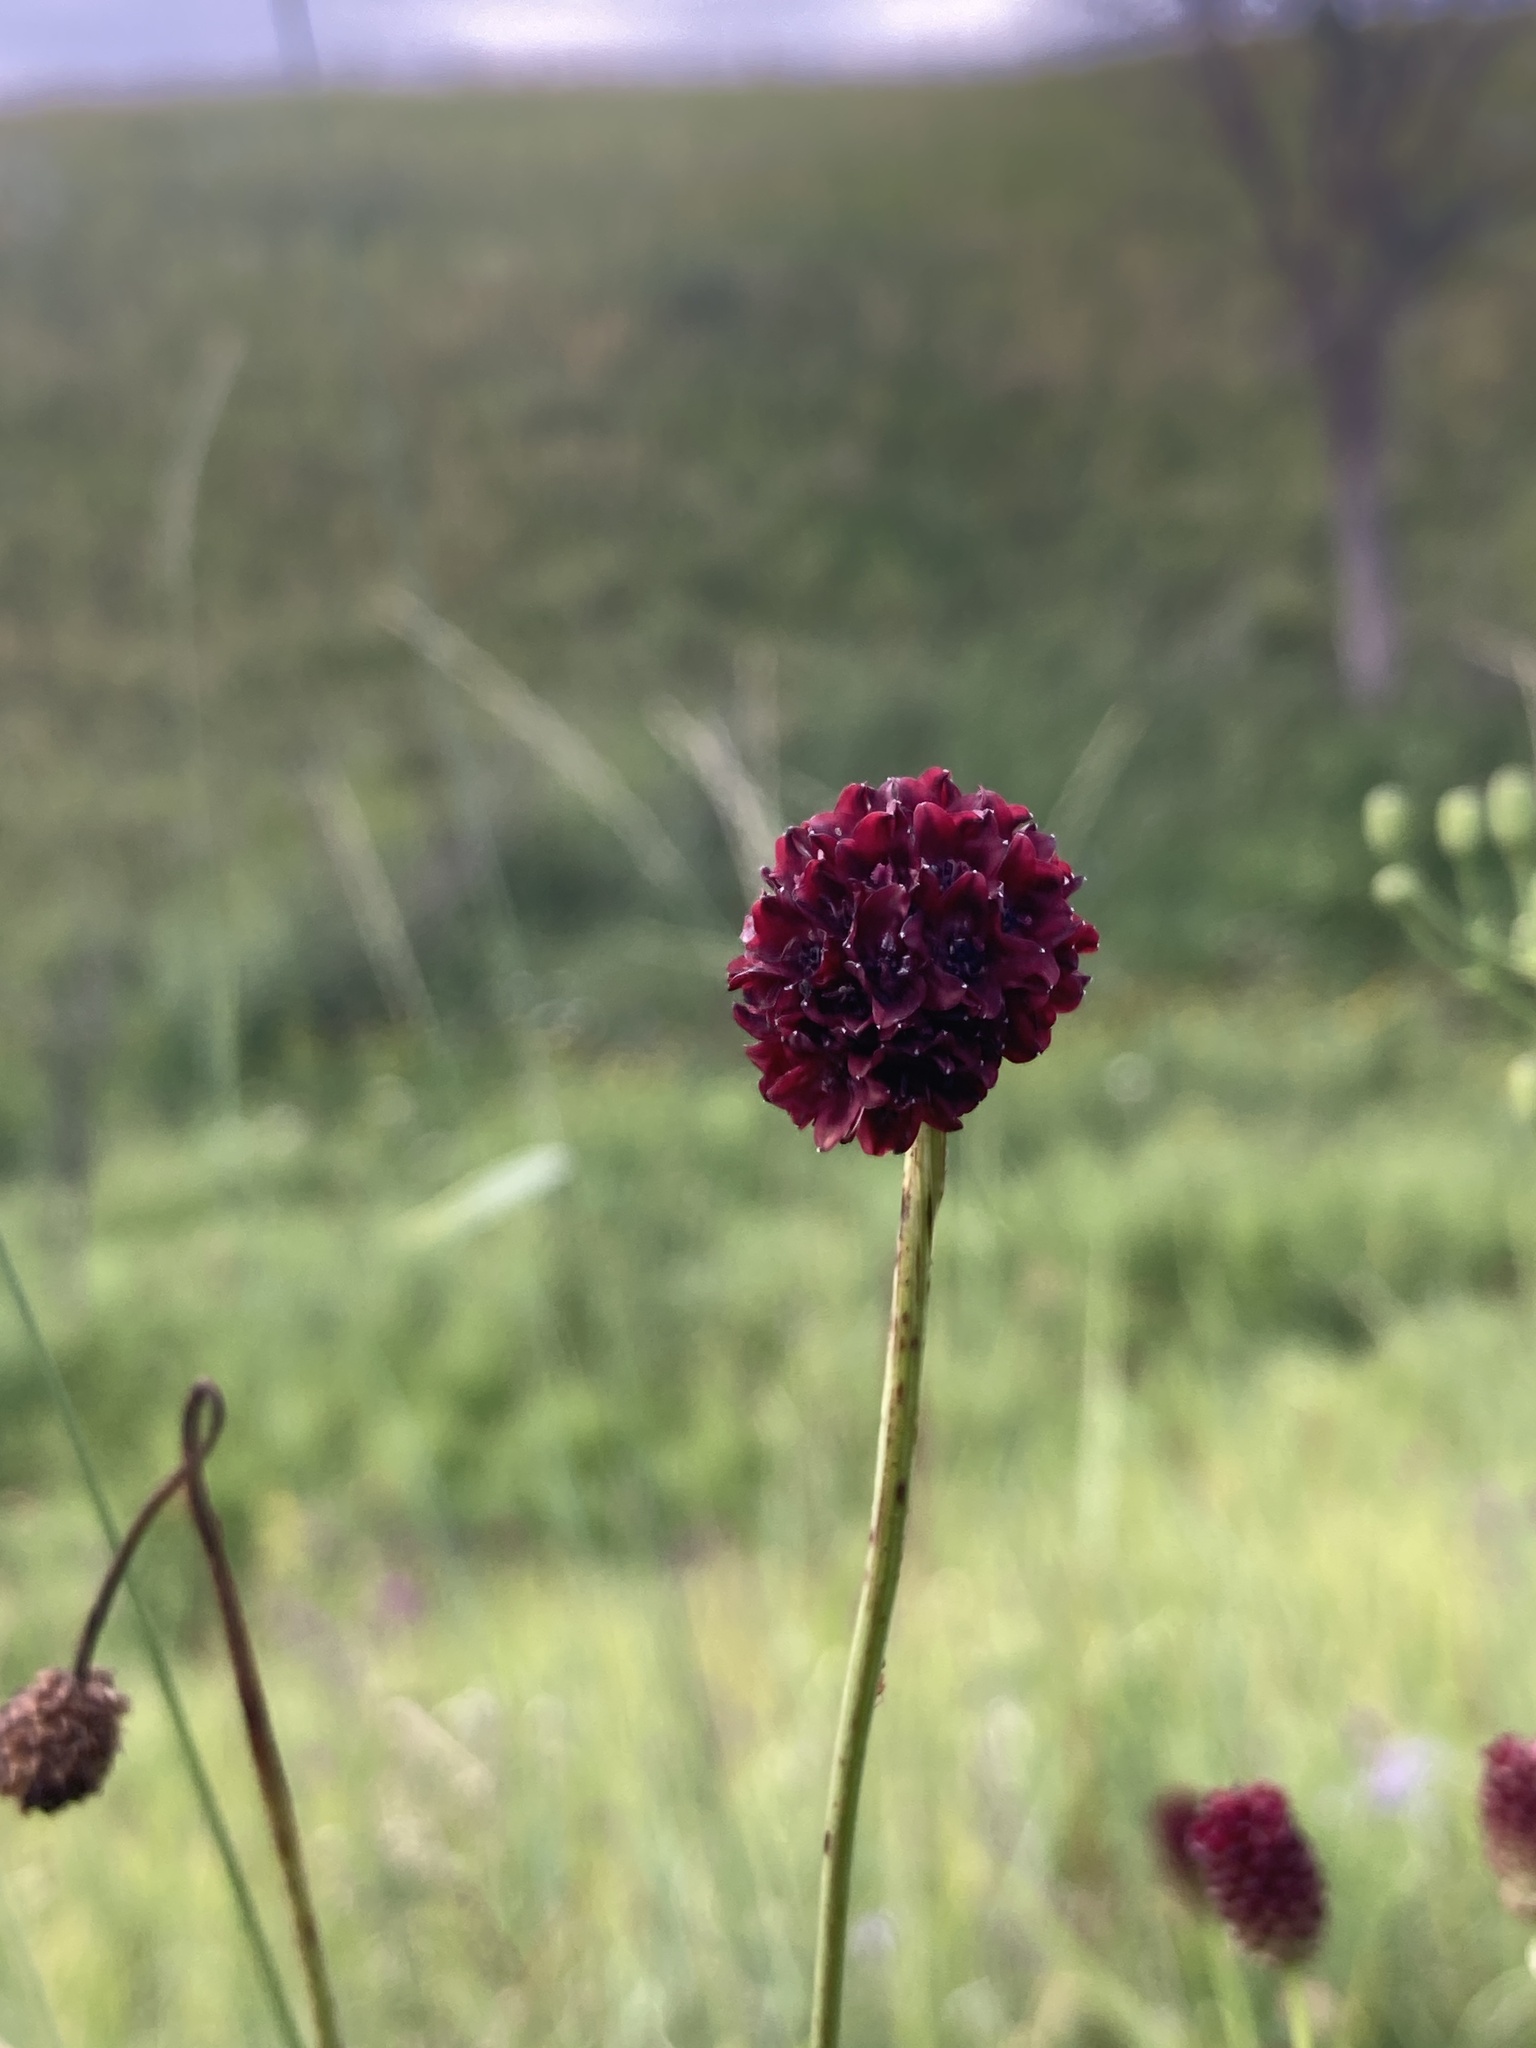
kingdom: Plantae
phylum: Tracheophyta
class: Magnoliopsida
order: Rosales
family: Rosaceae
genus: Sanguisorba
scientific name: Sanguisorba officinalis
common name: Great burnet
